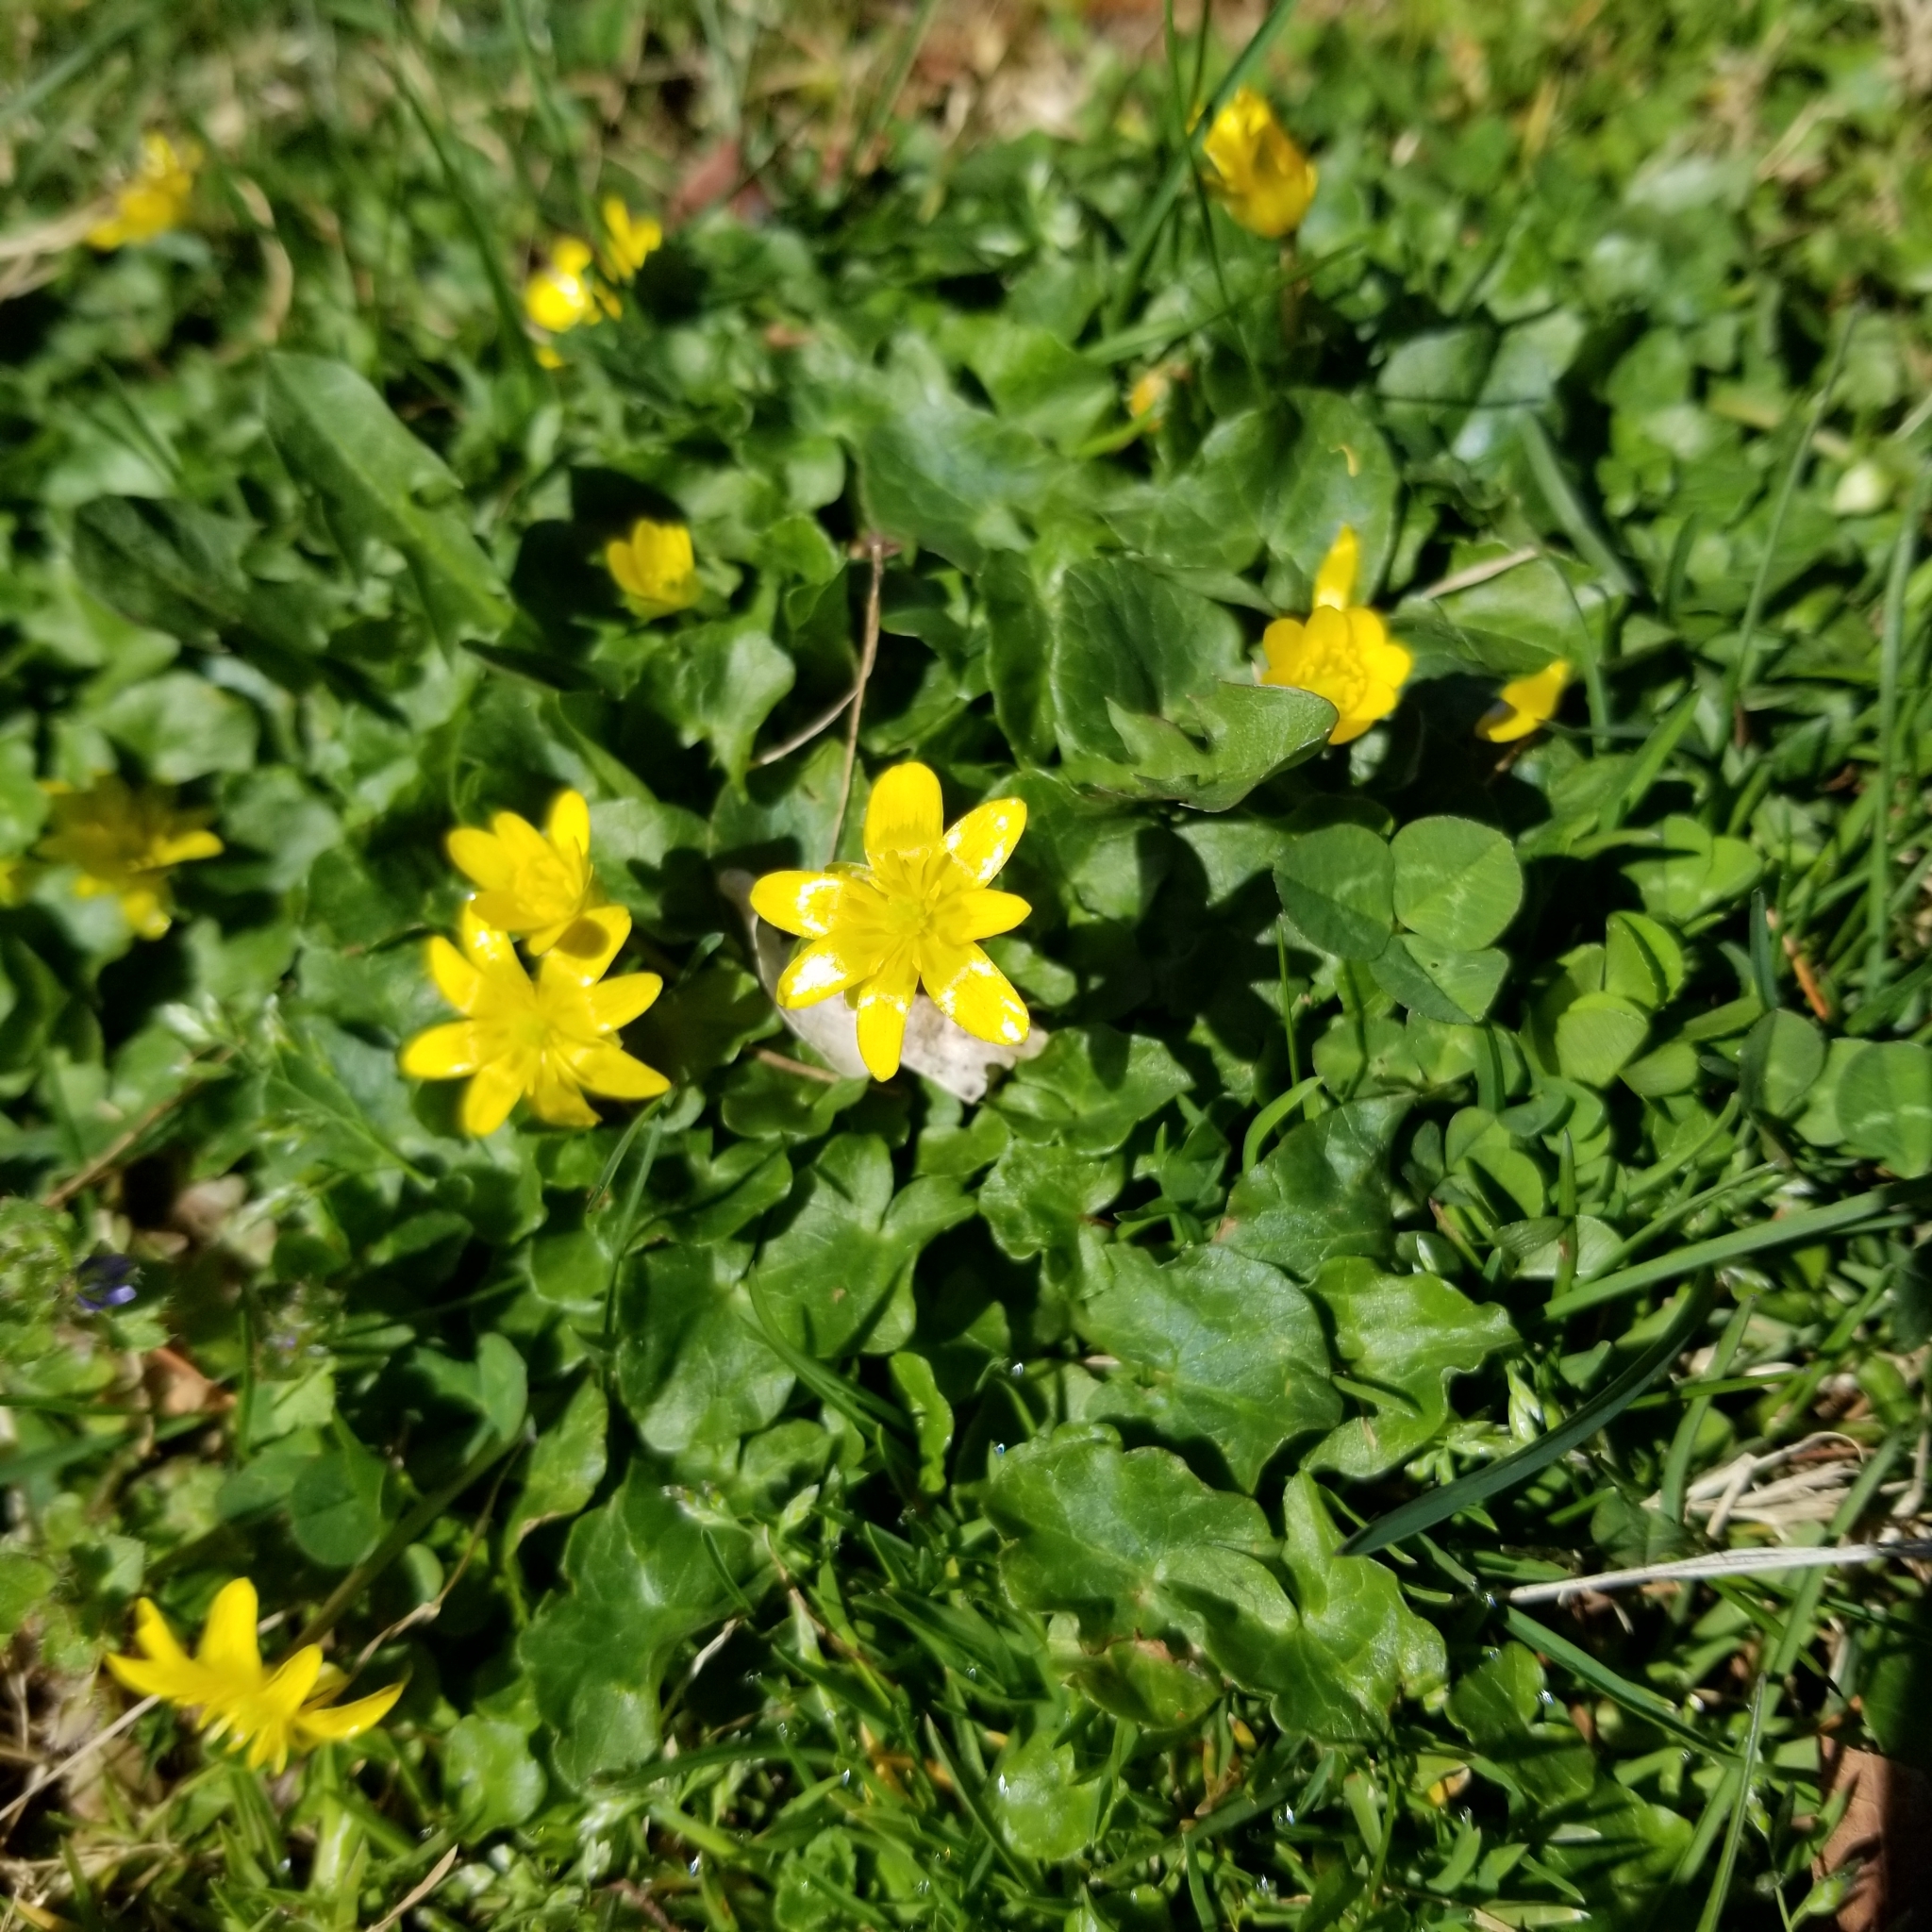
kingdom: Plantae
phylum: Tracheophyta
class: Magnoliopsida
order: Ranunculales
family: Ranunculaceae
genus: Ficaria
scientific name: Ficaria verna
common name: Lesser celandine
